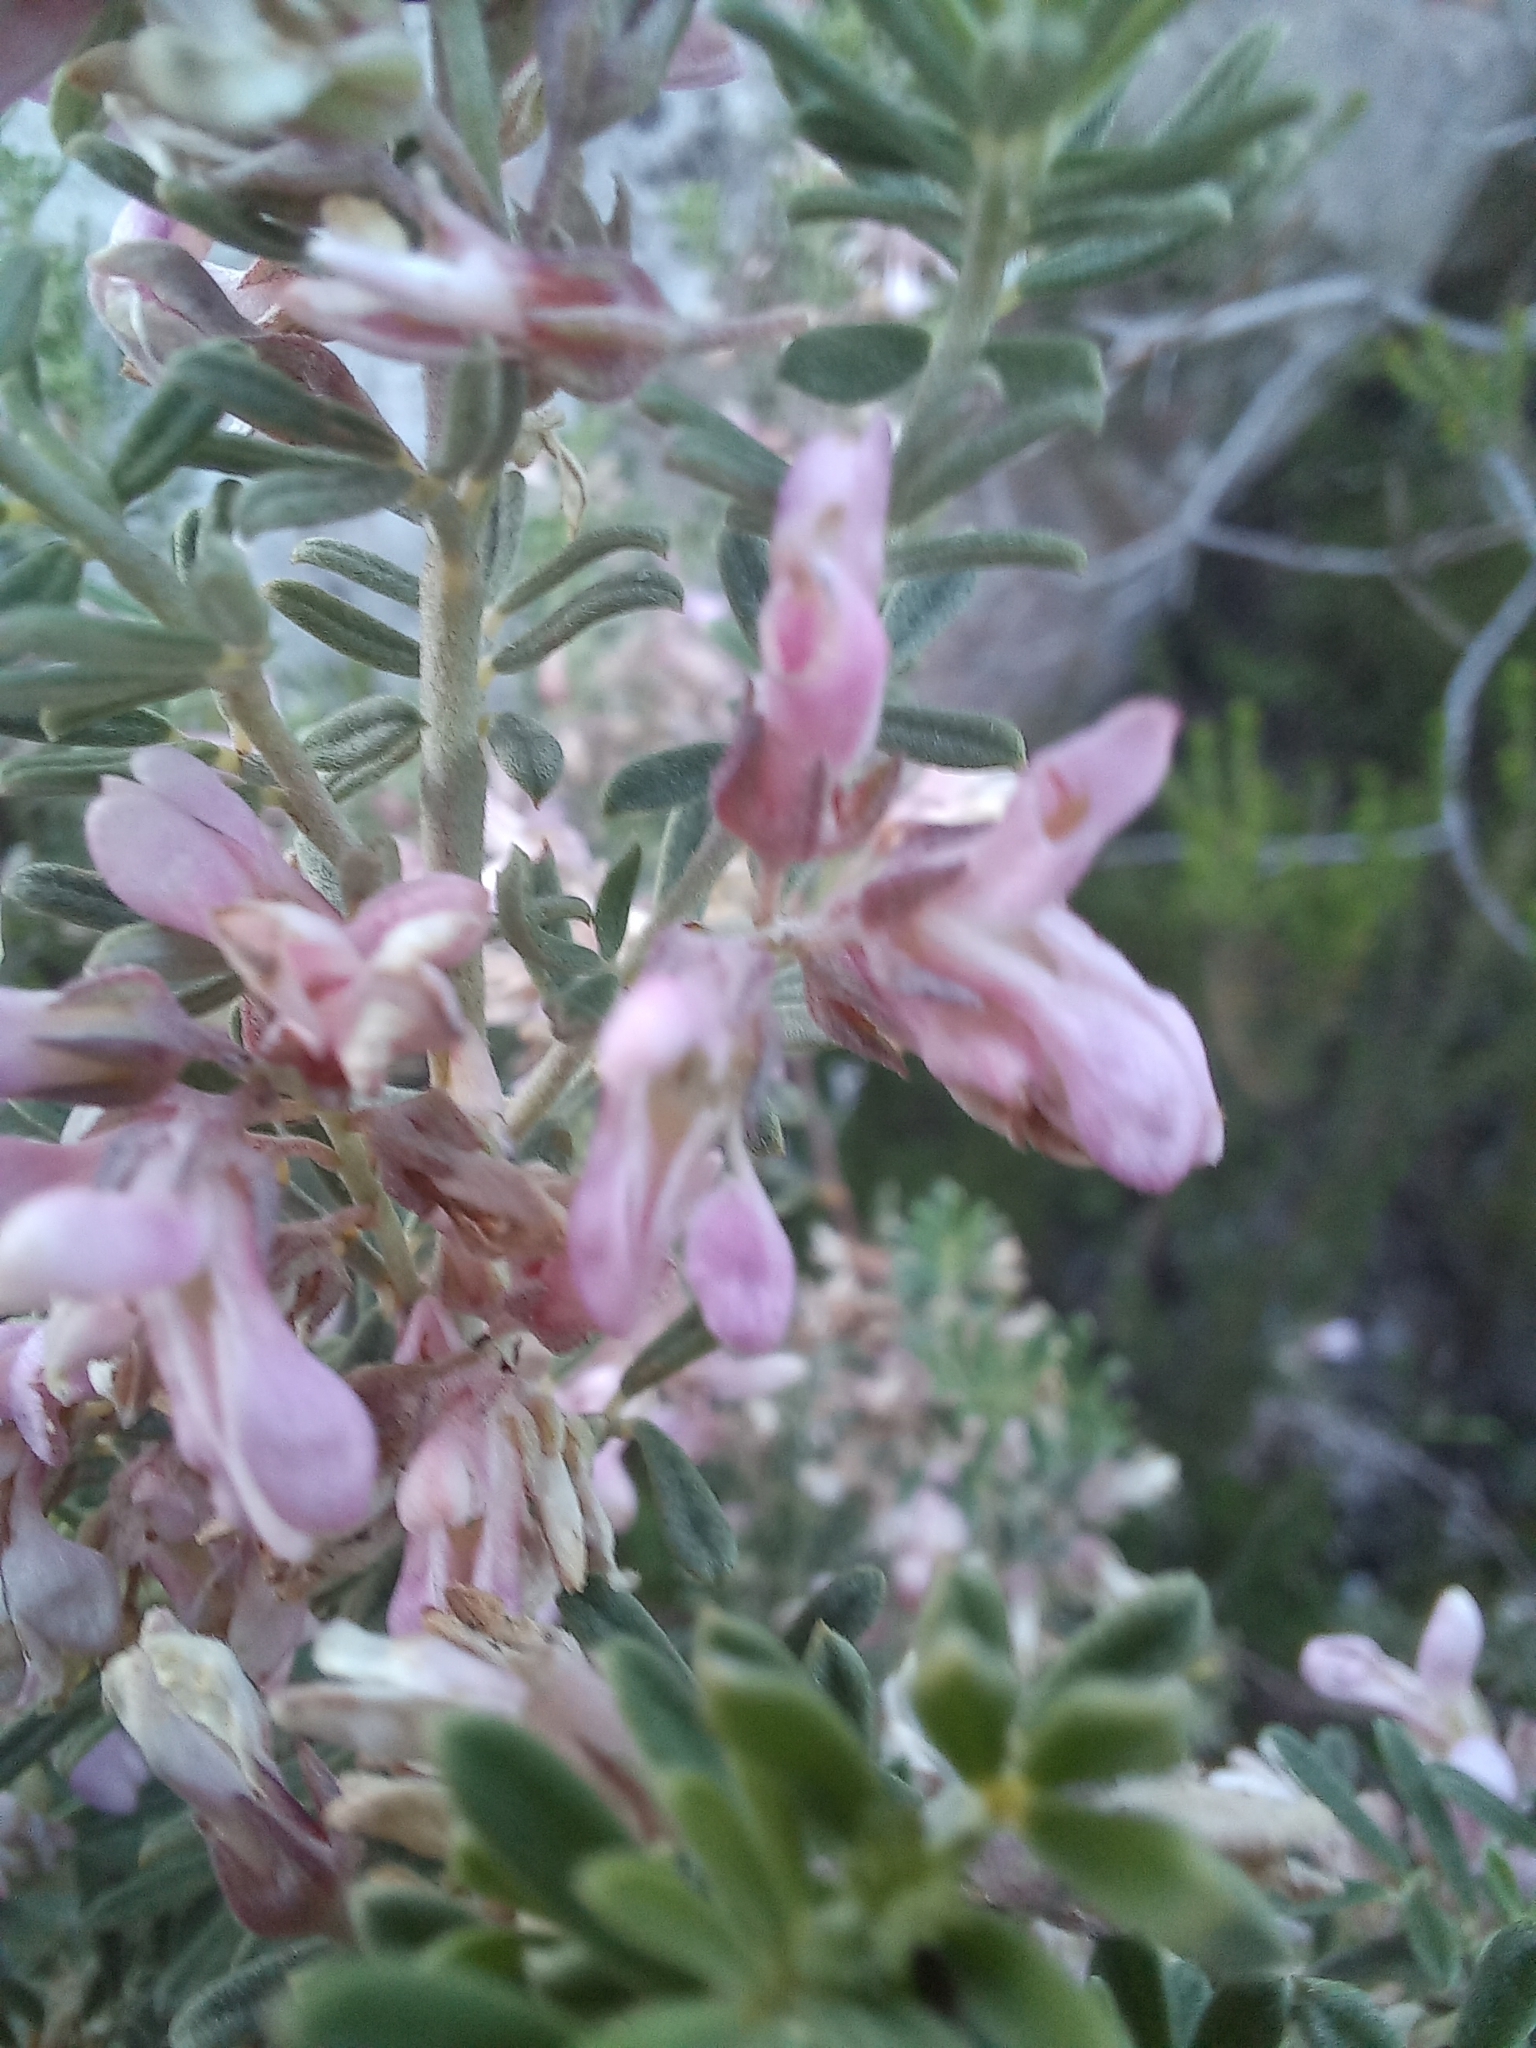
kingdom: Plantae
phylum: Tracheophyta
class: Magnoliopsida
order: Fabales
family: Fabaceae
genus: Indigofera
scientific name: Indigofera brachystachya
